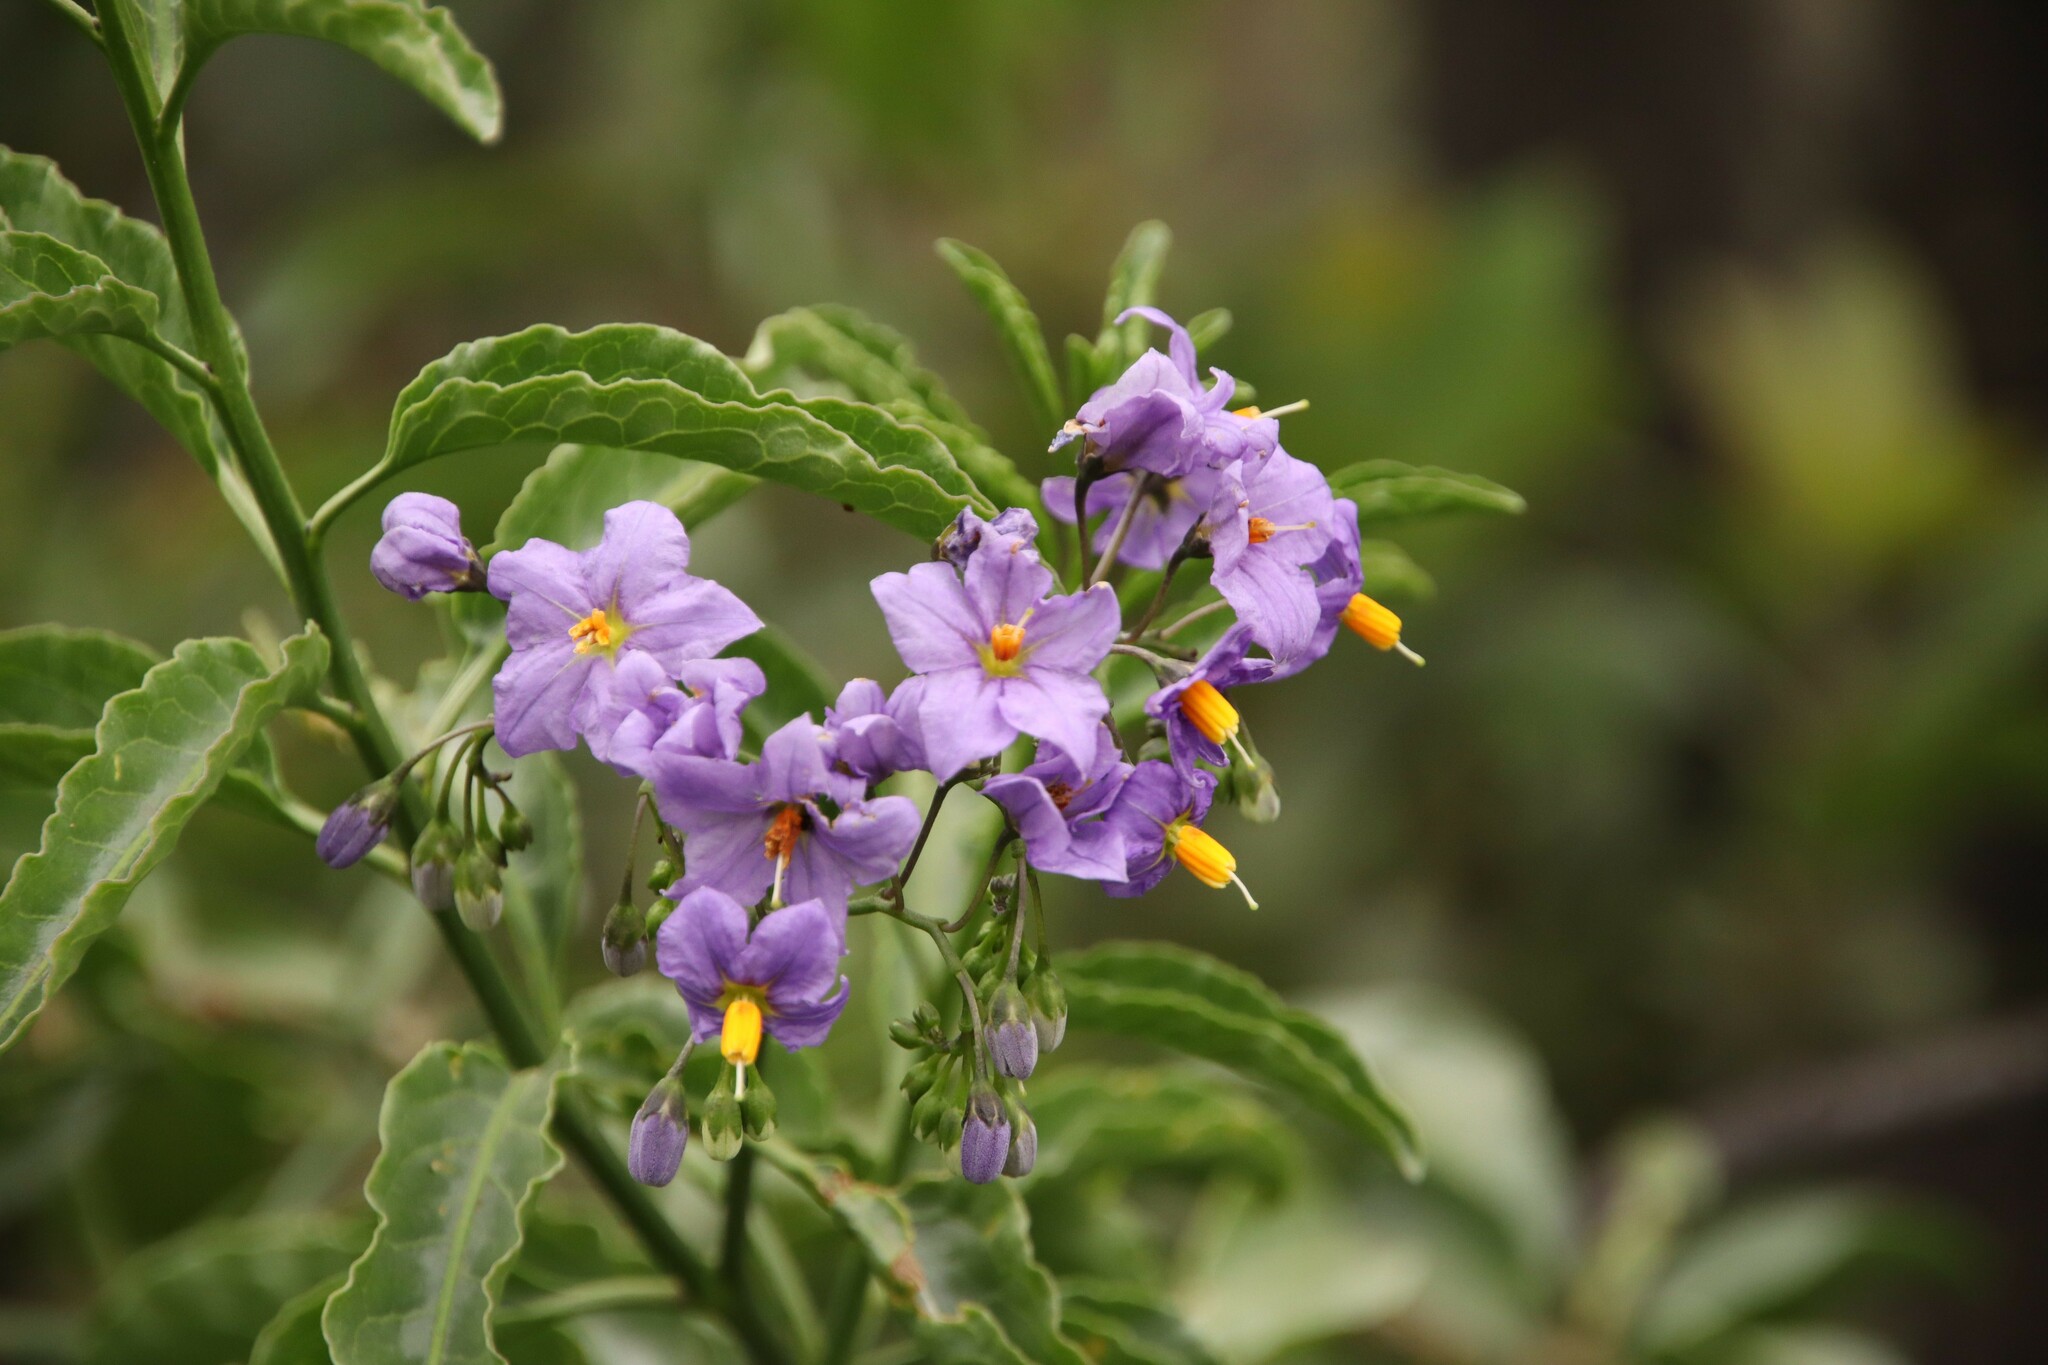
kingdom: Plantae
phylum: Tracheophyta
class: Magnoliopsida
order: Solanales
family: Solanaceae
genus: Solanum
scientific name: Solanum crispum
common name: Chilean nightshade
